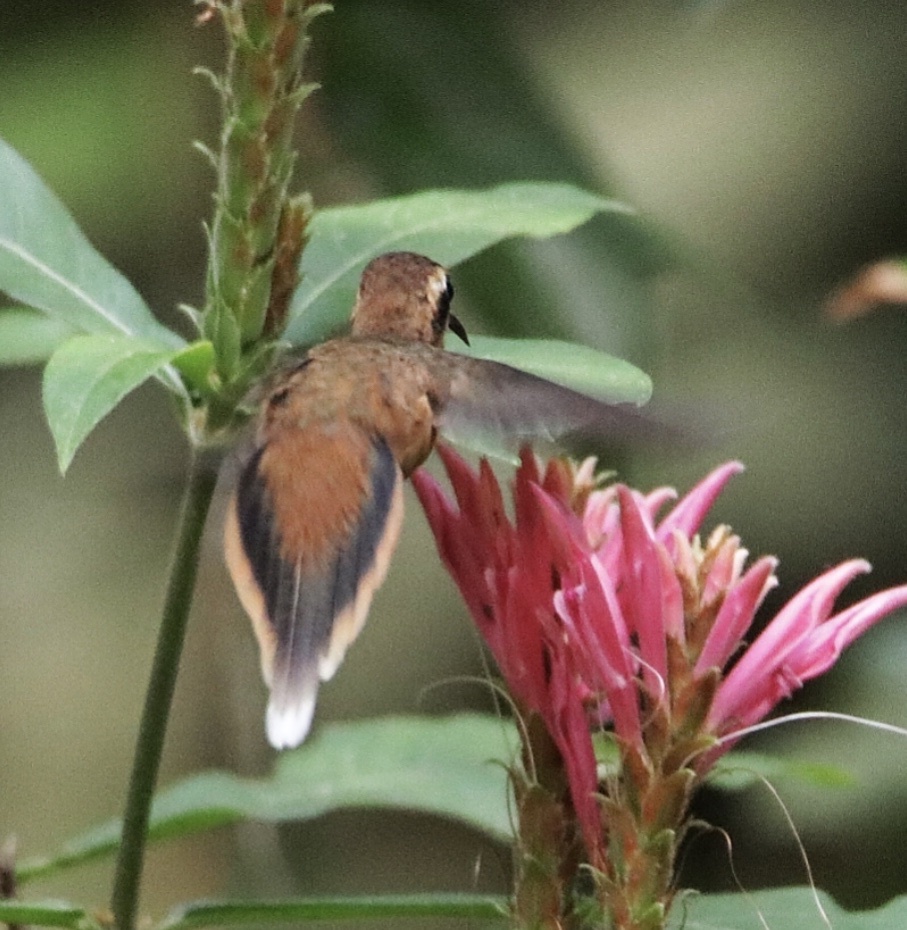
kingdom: Animalia
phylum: Chordata
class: Aves
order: Apodiformes
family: Trochilidae
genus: Phaethornis
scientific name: Phaethornis striigularis
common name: Stripe-throated hermit
